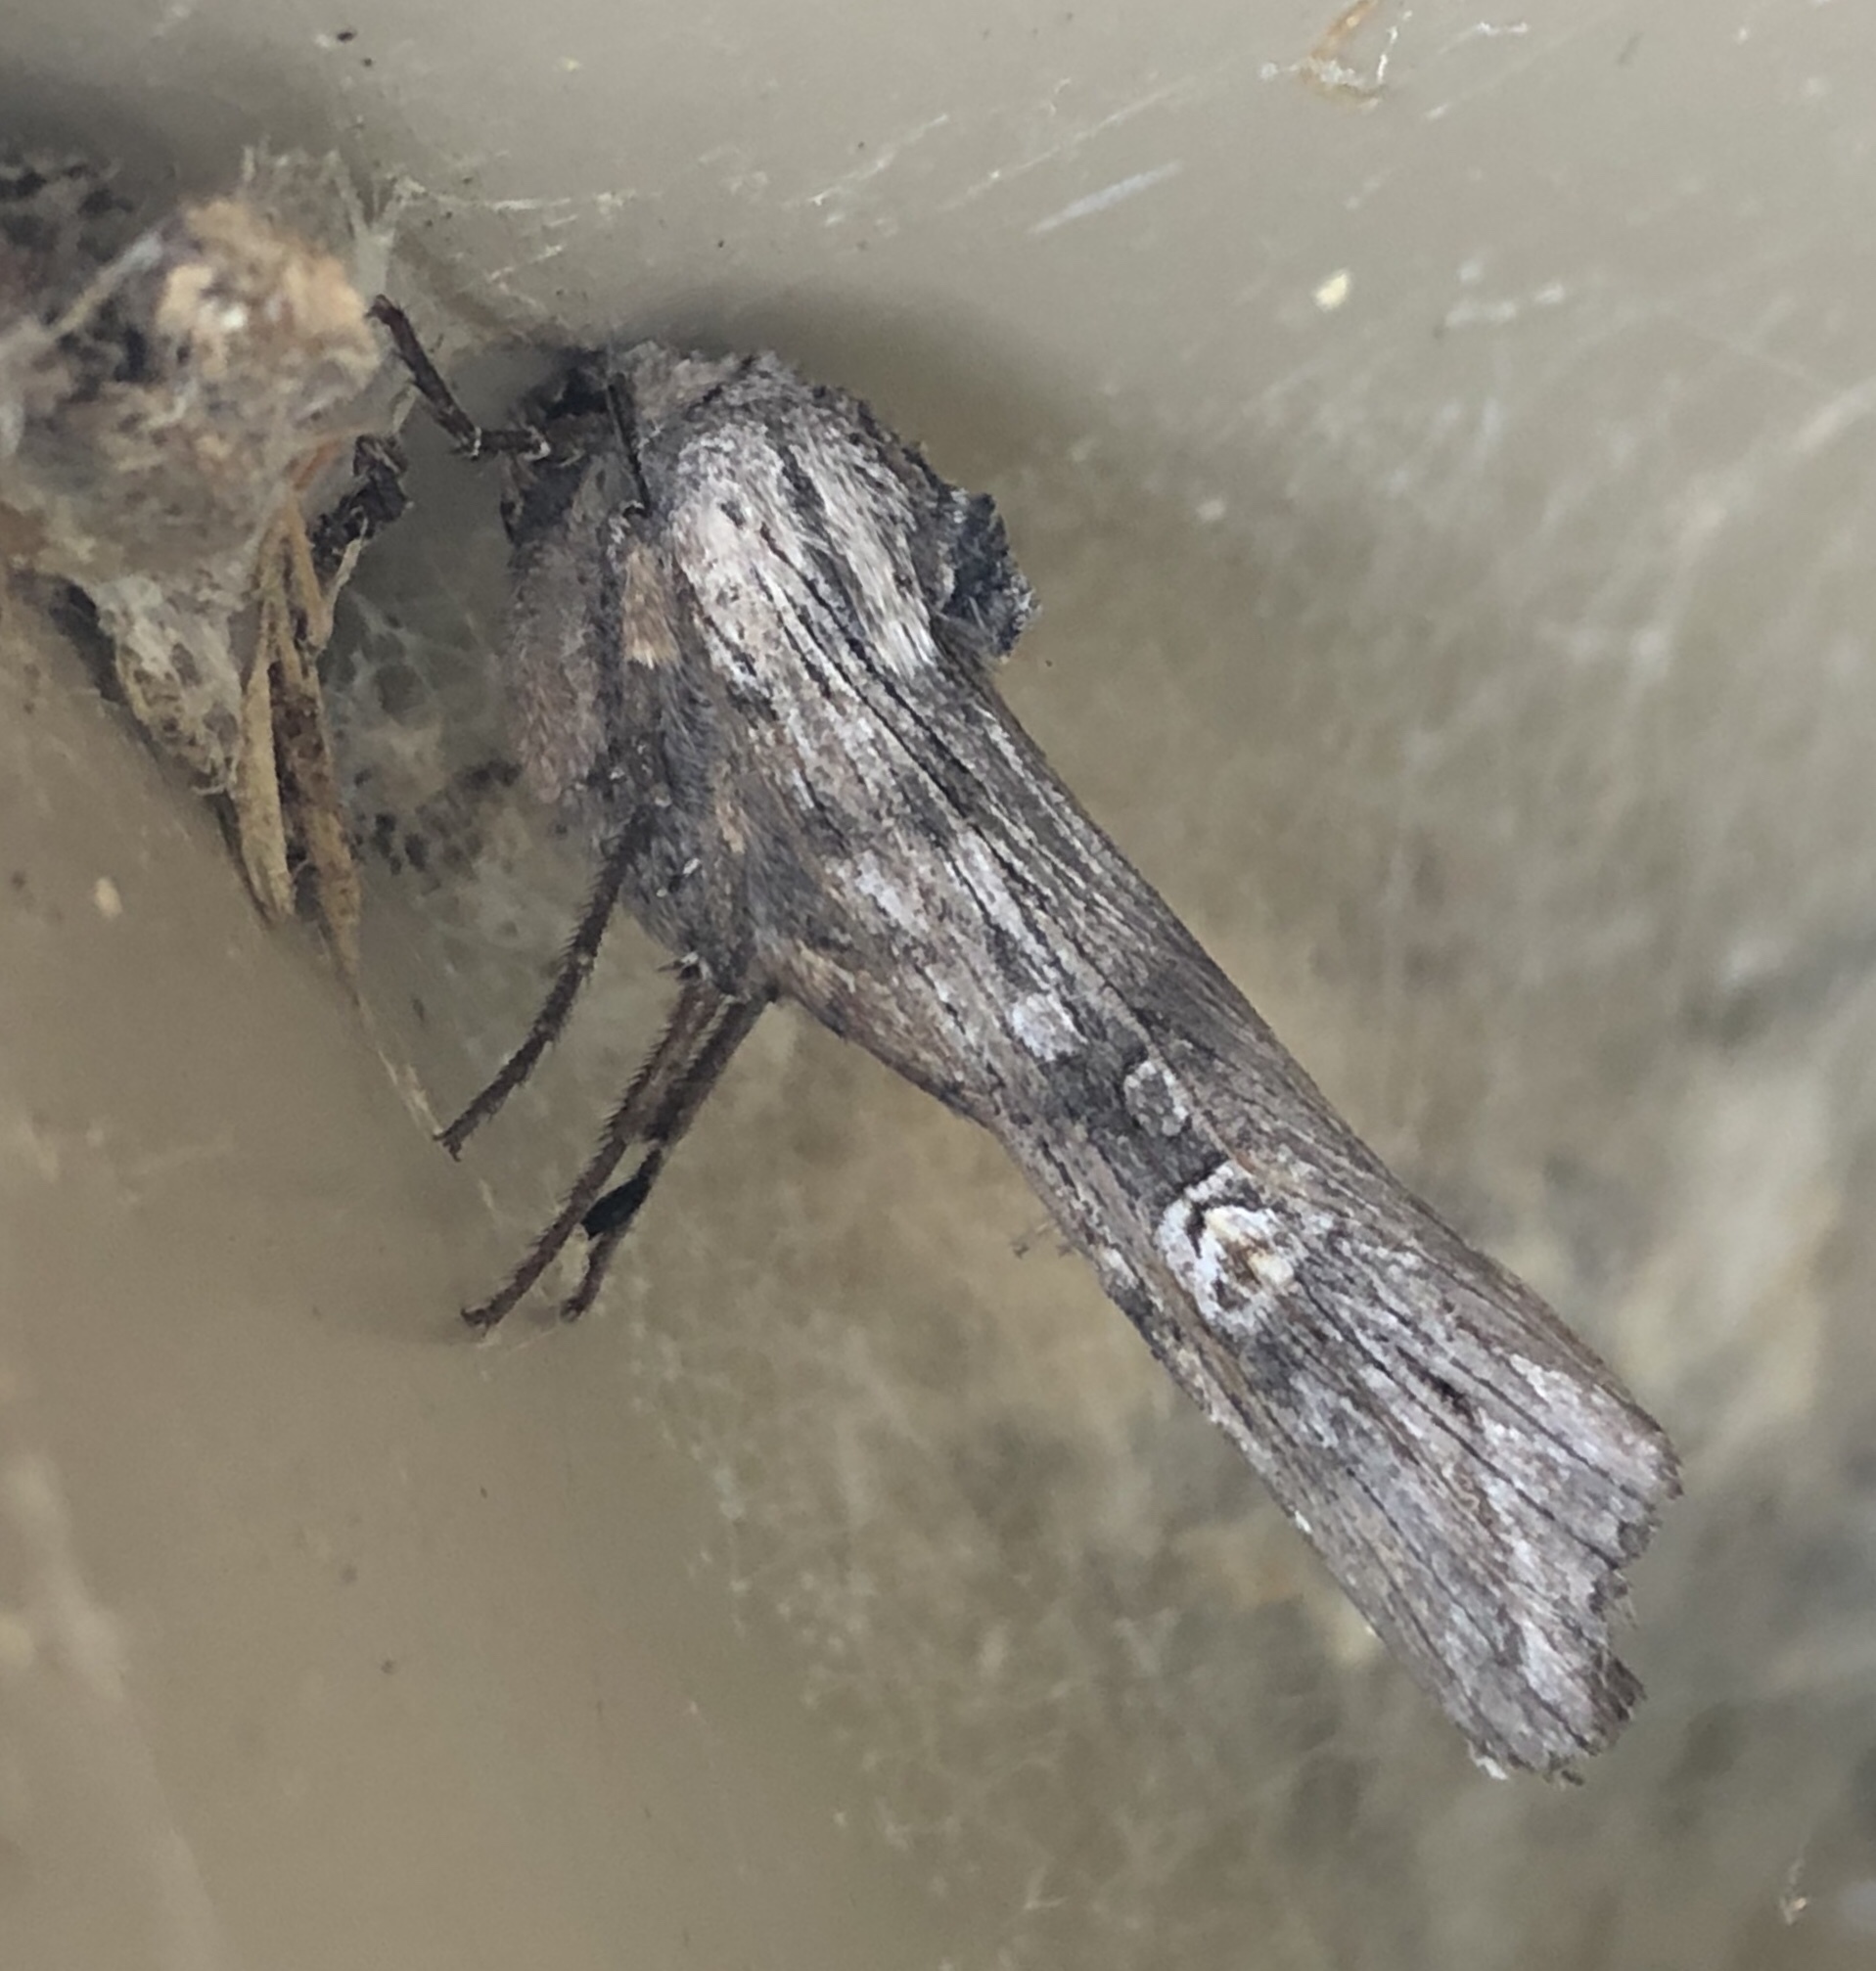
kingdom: Animalia
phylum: Arthropoda
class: Insecta
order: Lepidoptera
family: Noctuidae
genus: Xylena
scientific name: Xylena germana
